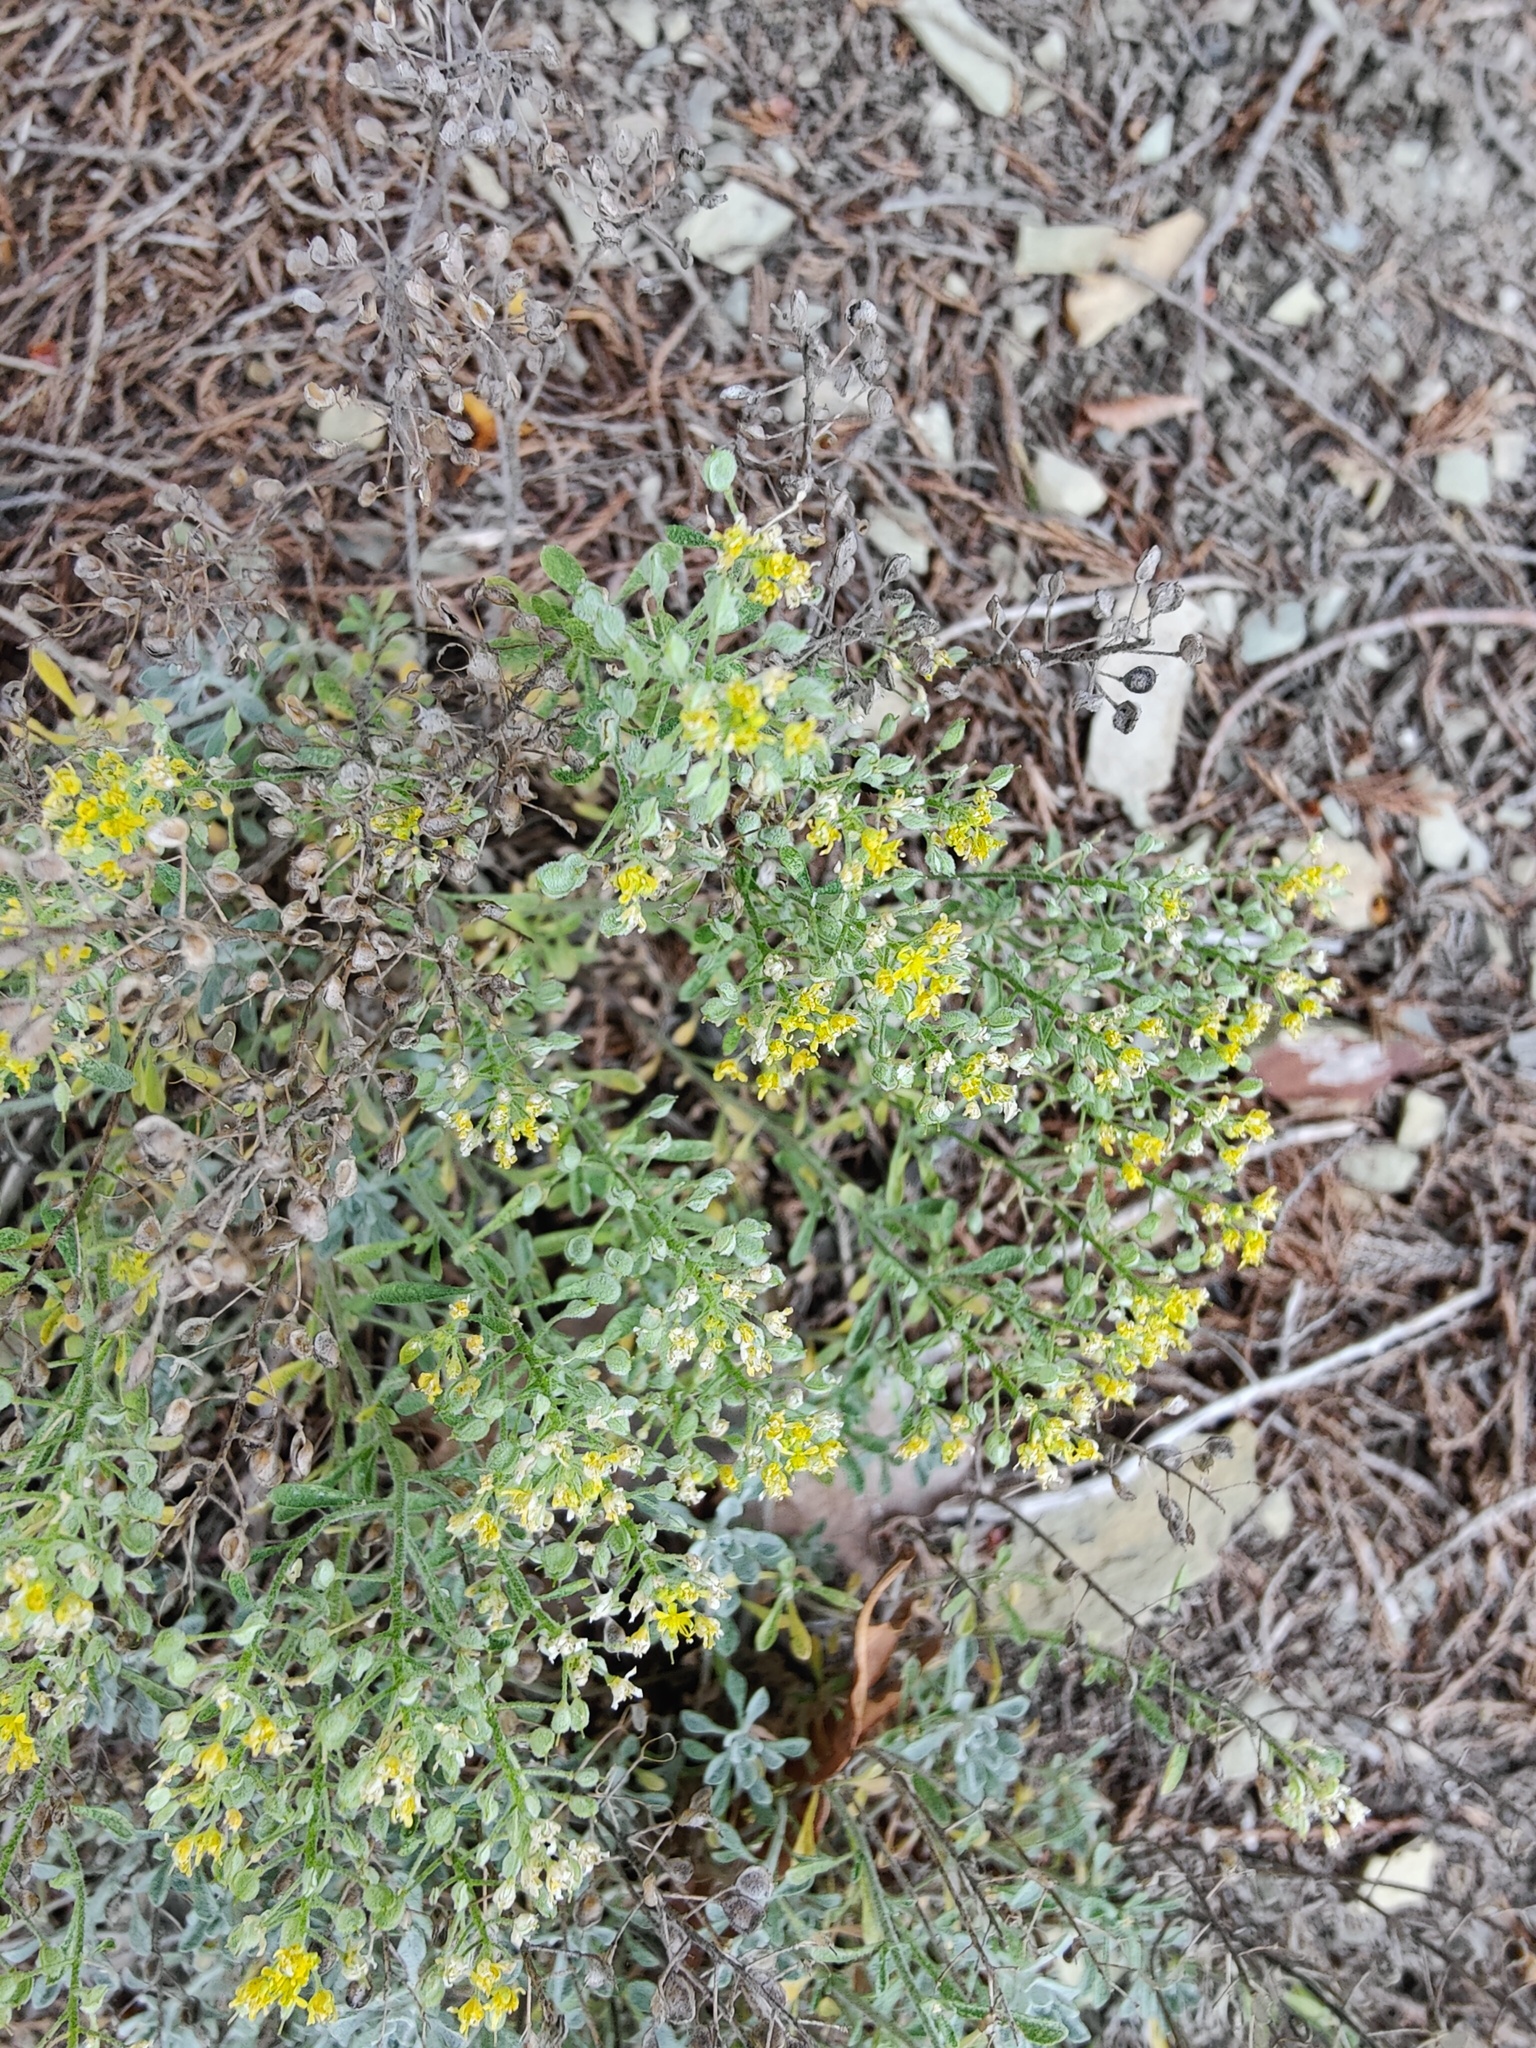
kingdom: Plantae
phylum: Tracheophyta
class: Magnoliopsida
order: Brassicales
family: Brassicaceae
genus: Odontarrhena
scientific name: Odontarrhena obtusifolia
